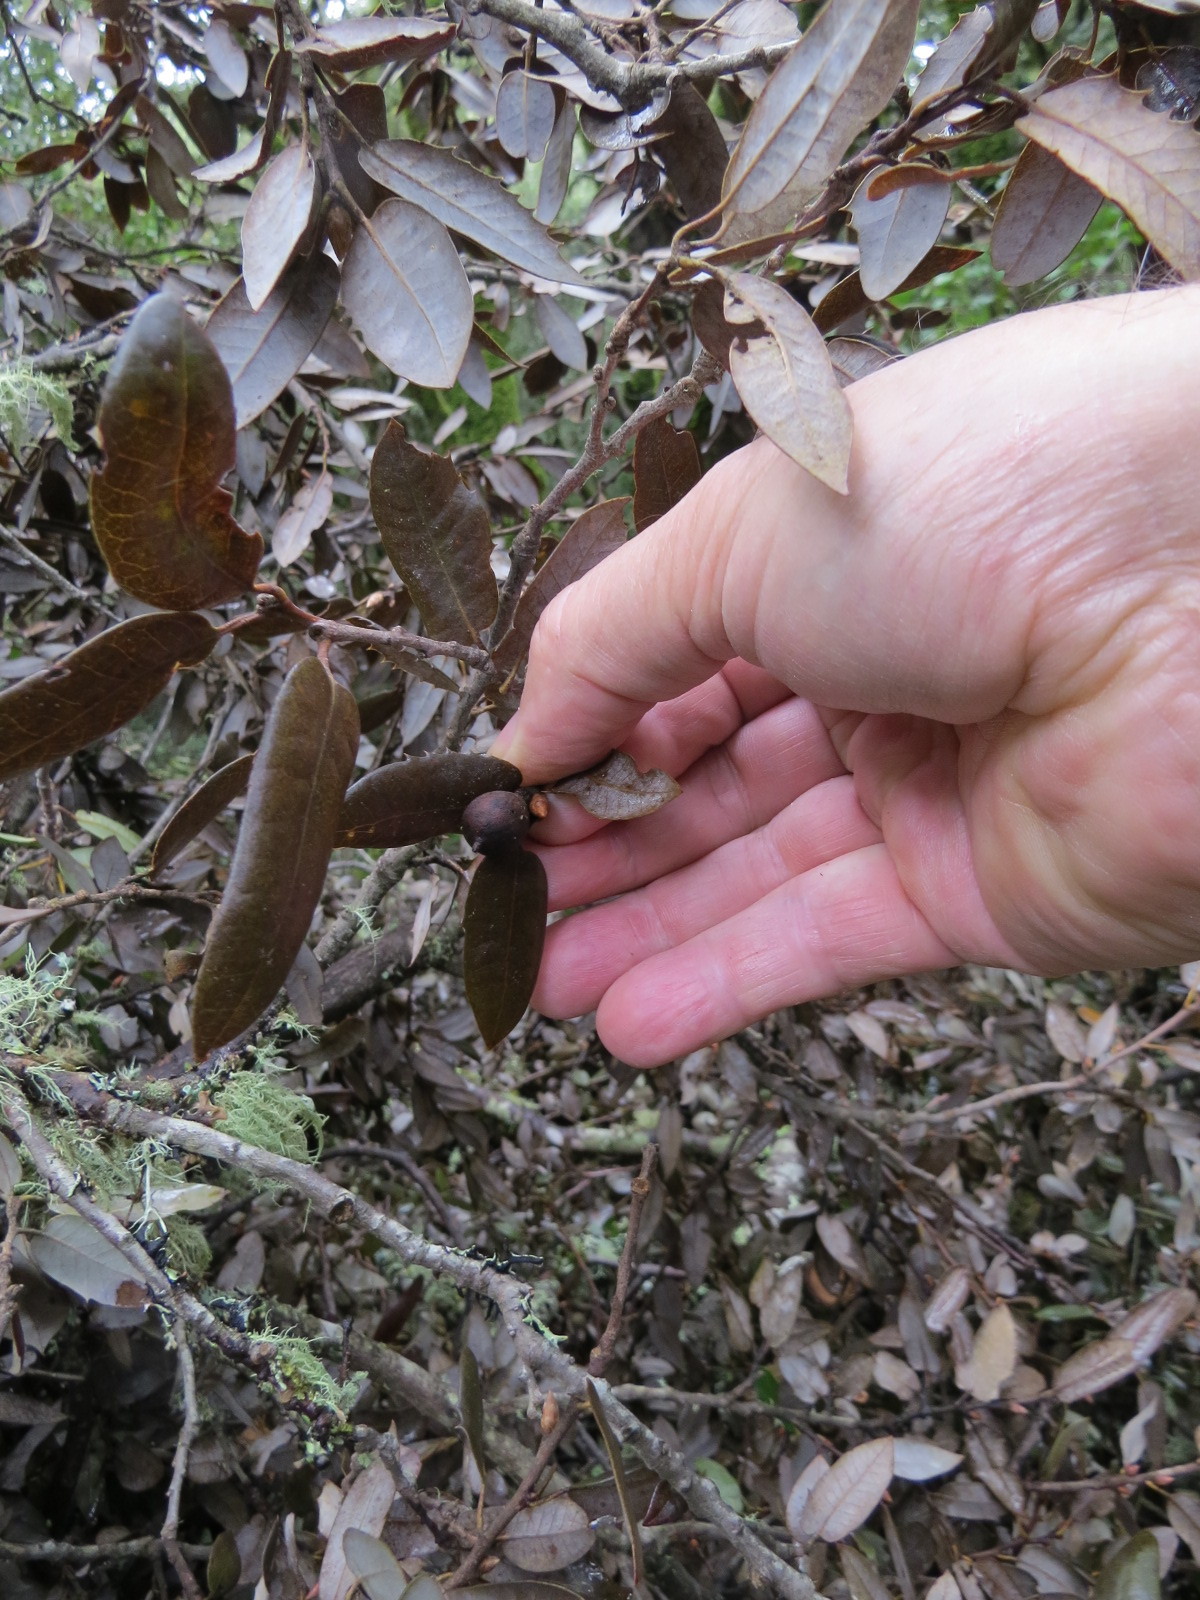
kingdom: Animalia
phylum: Arthropoda
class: Insecta
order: Hymenoptera
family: Cynipidae
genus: Heteroecus
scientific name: Heteroecus
